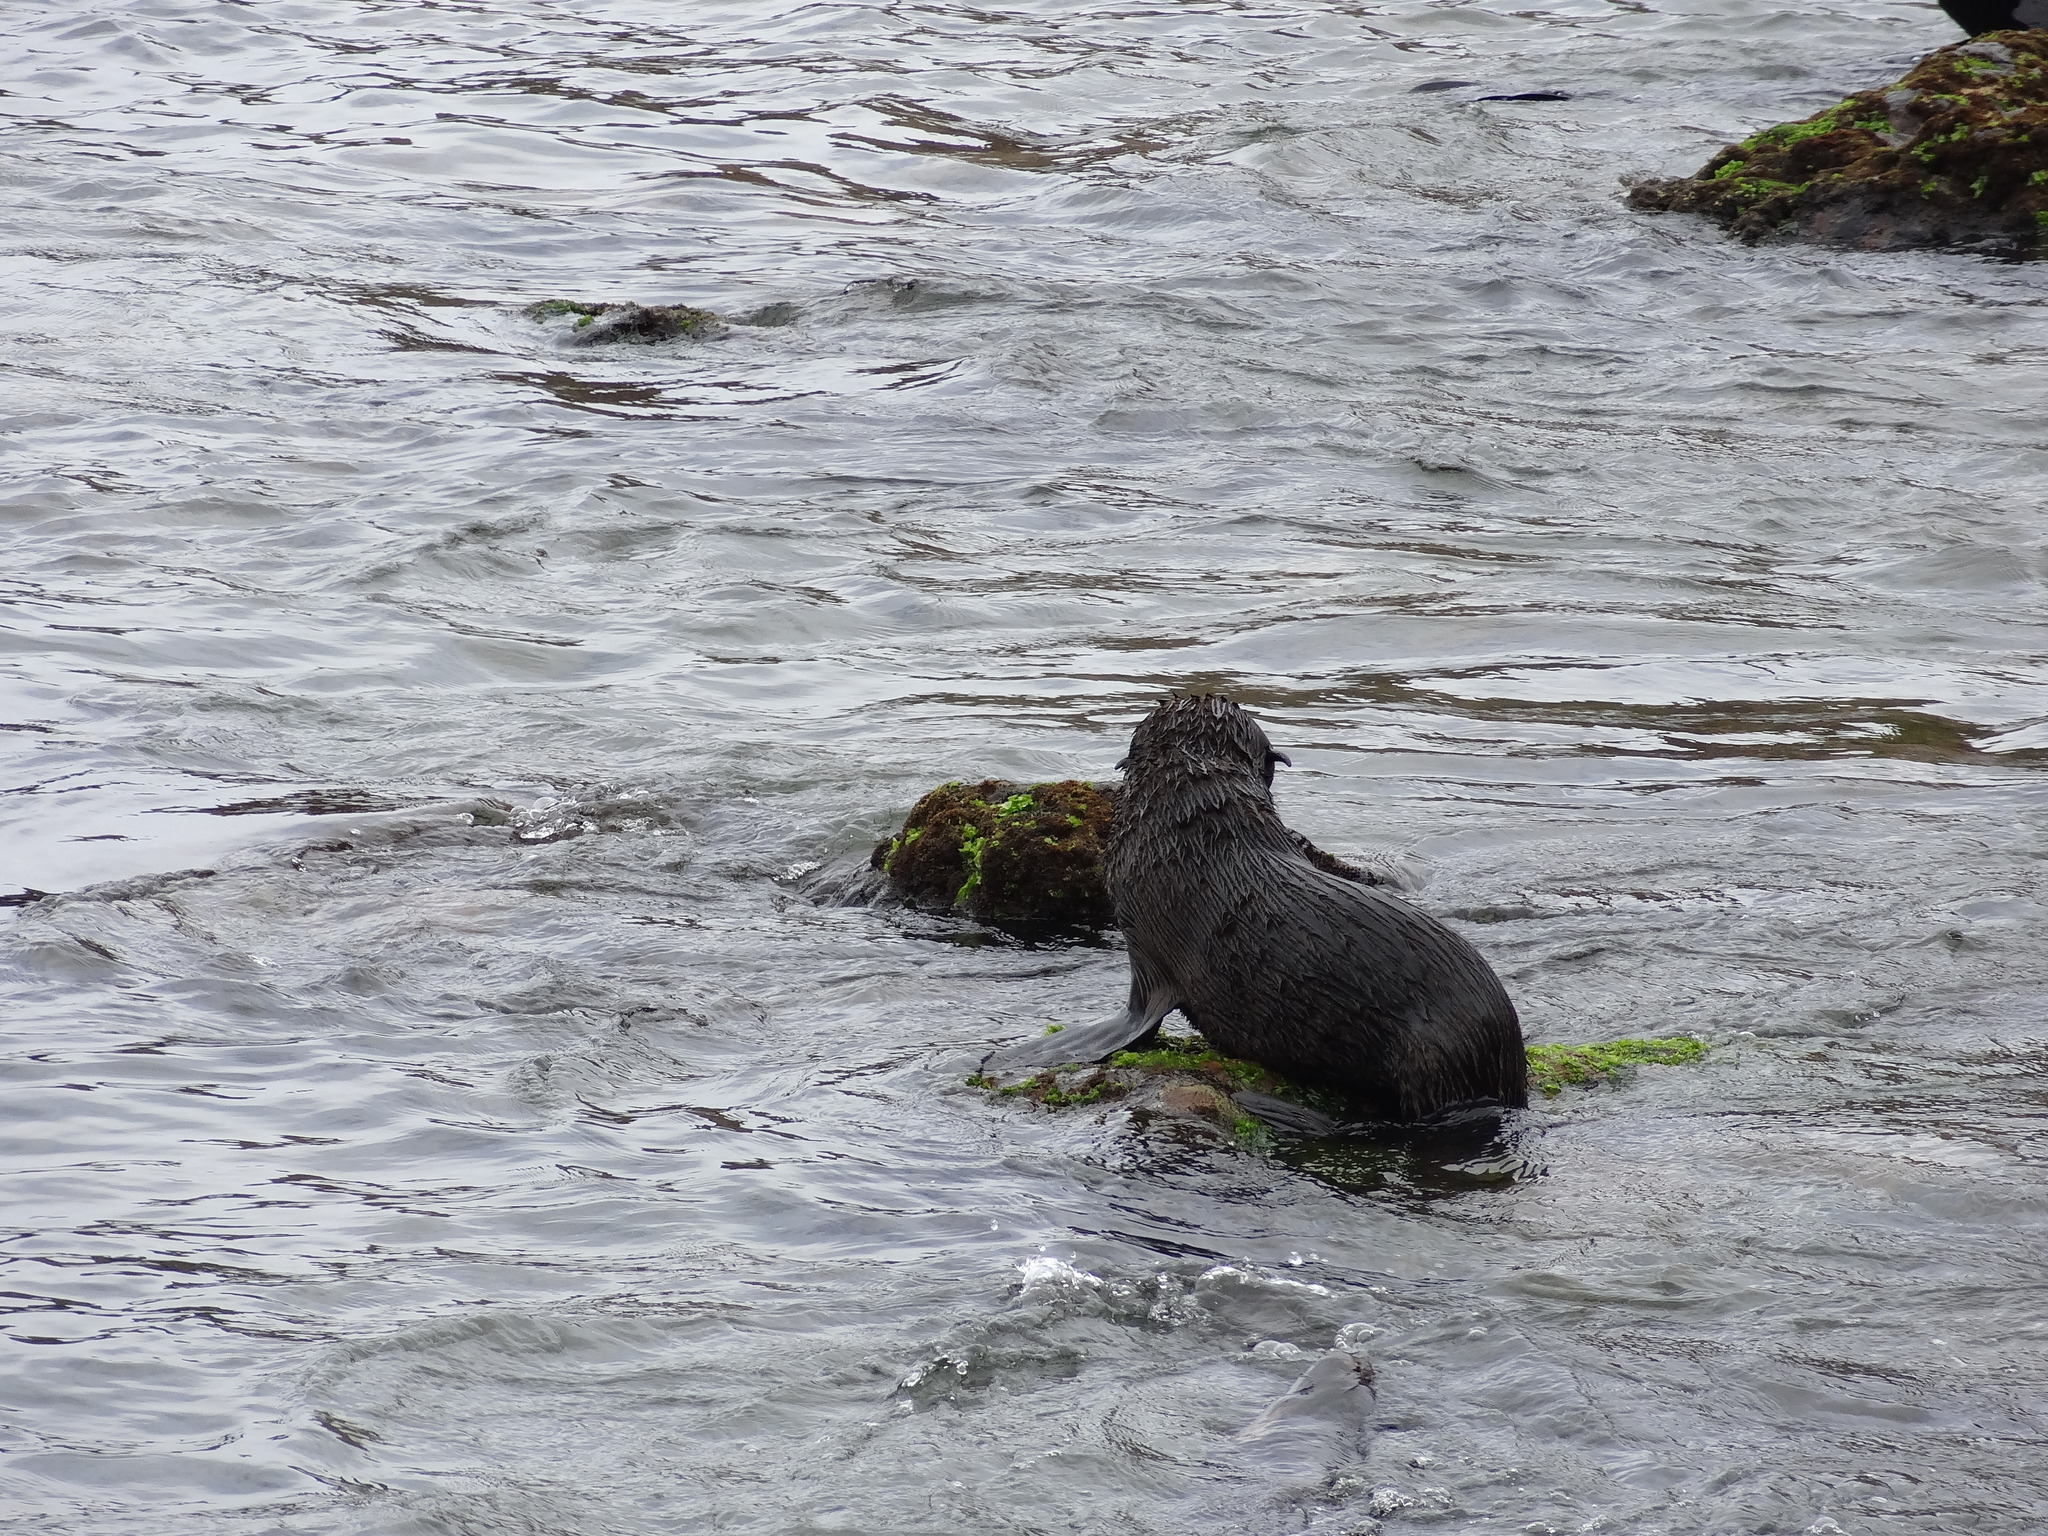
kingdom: Animalia
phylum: Chordata
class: Mammalia
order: Carnivora
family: Otariidae
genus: Arctocephalus
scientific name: Arctocephalus philippii
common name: Juan fernández fur seal
